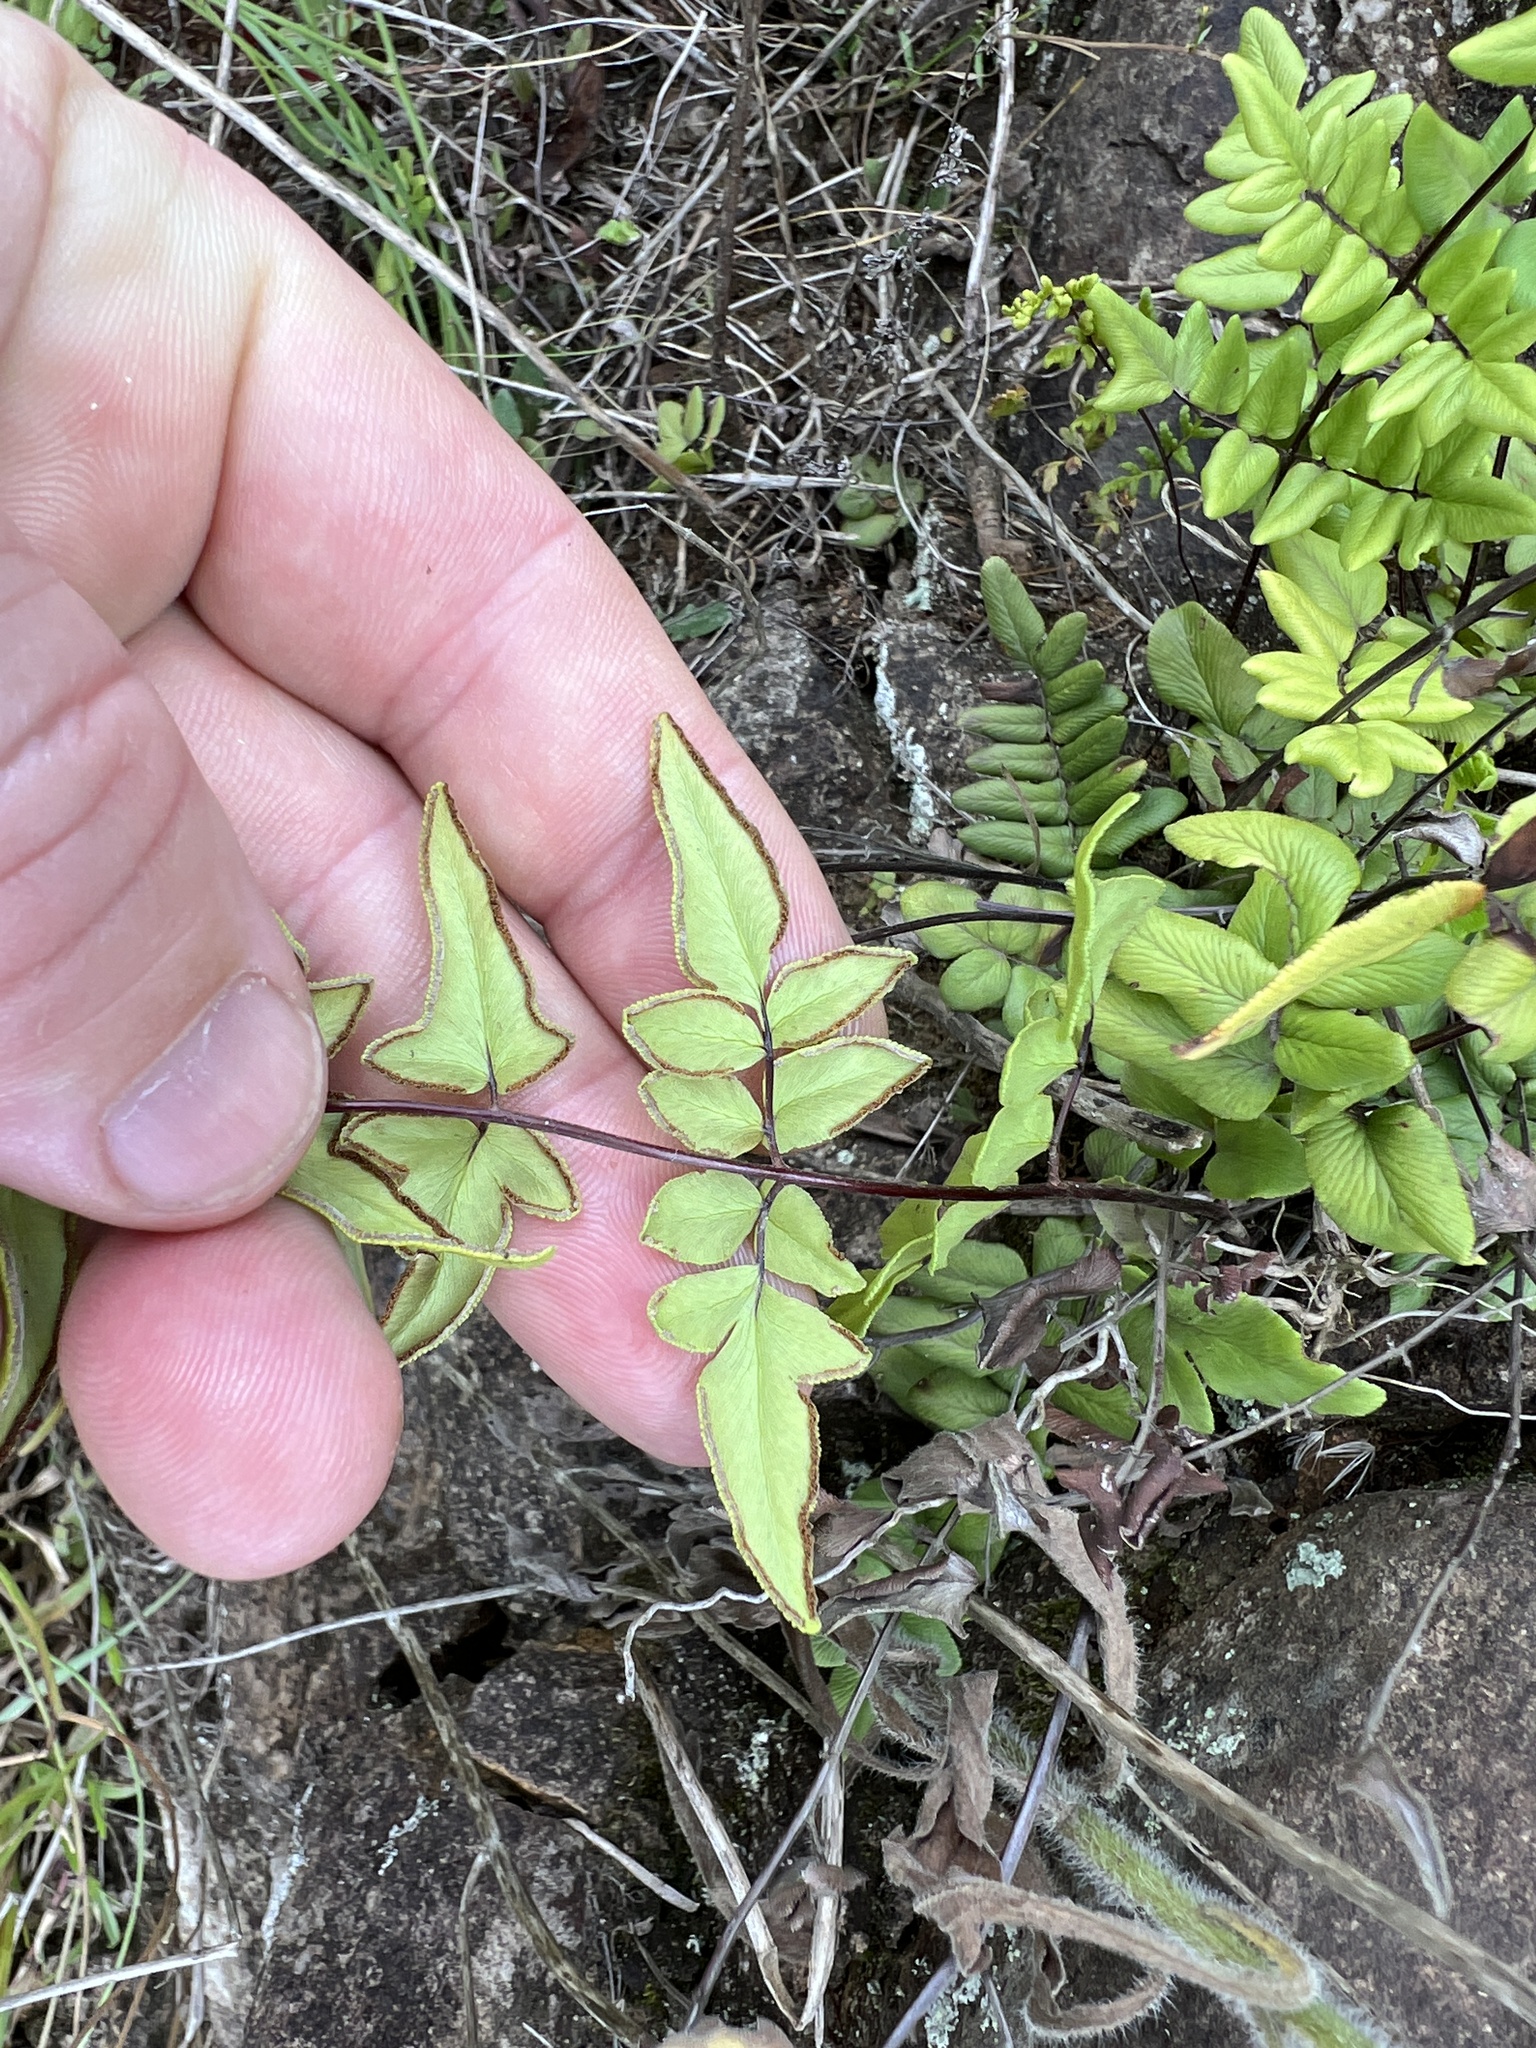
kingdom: Plantae
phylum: Tracheophyta
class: Polypodiopsida
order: Polypodiales
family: Pteridaceae
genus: Cheilanthes
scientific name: Cheilanthes viridis
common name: Green cliffbrake
